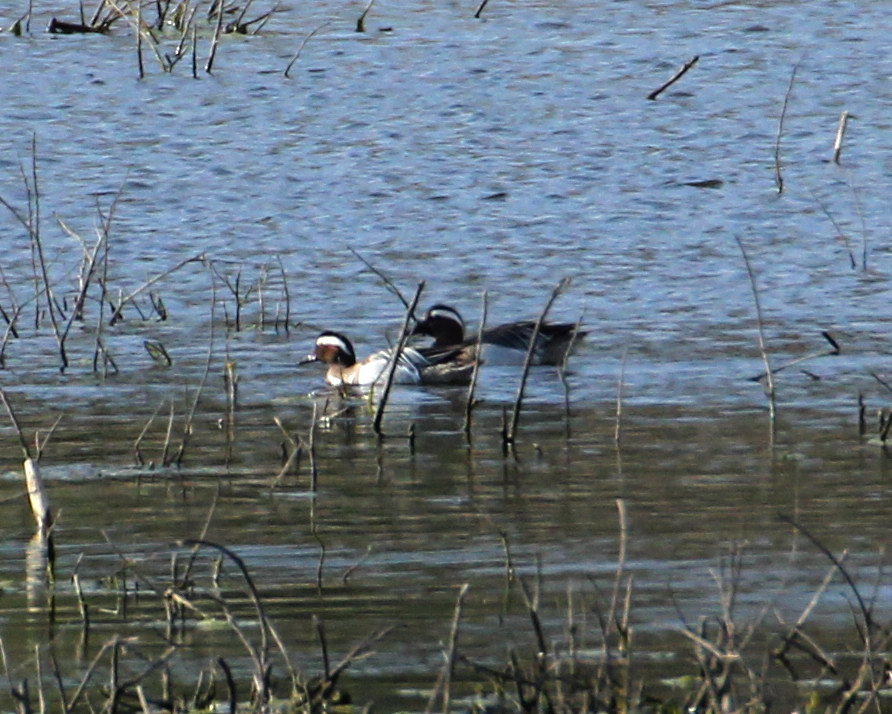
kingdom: Animalia
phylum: Chordata
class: Aves
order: Anseriformes
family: Anatidae
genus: Spatula
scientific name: Spatula querquedula
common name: Garganey
